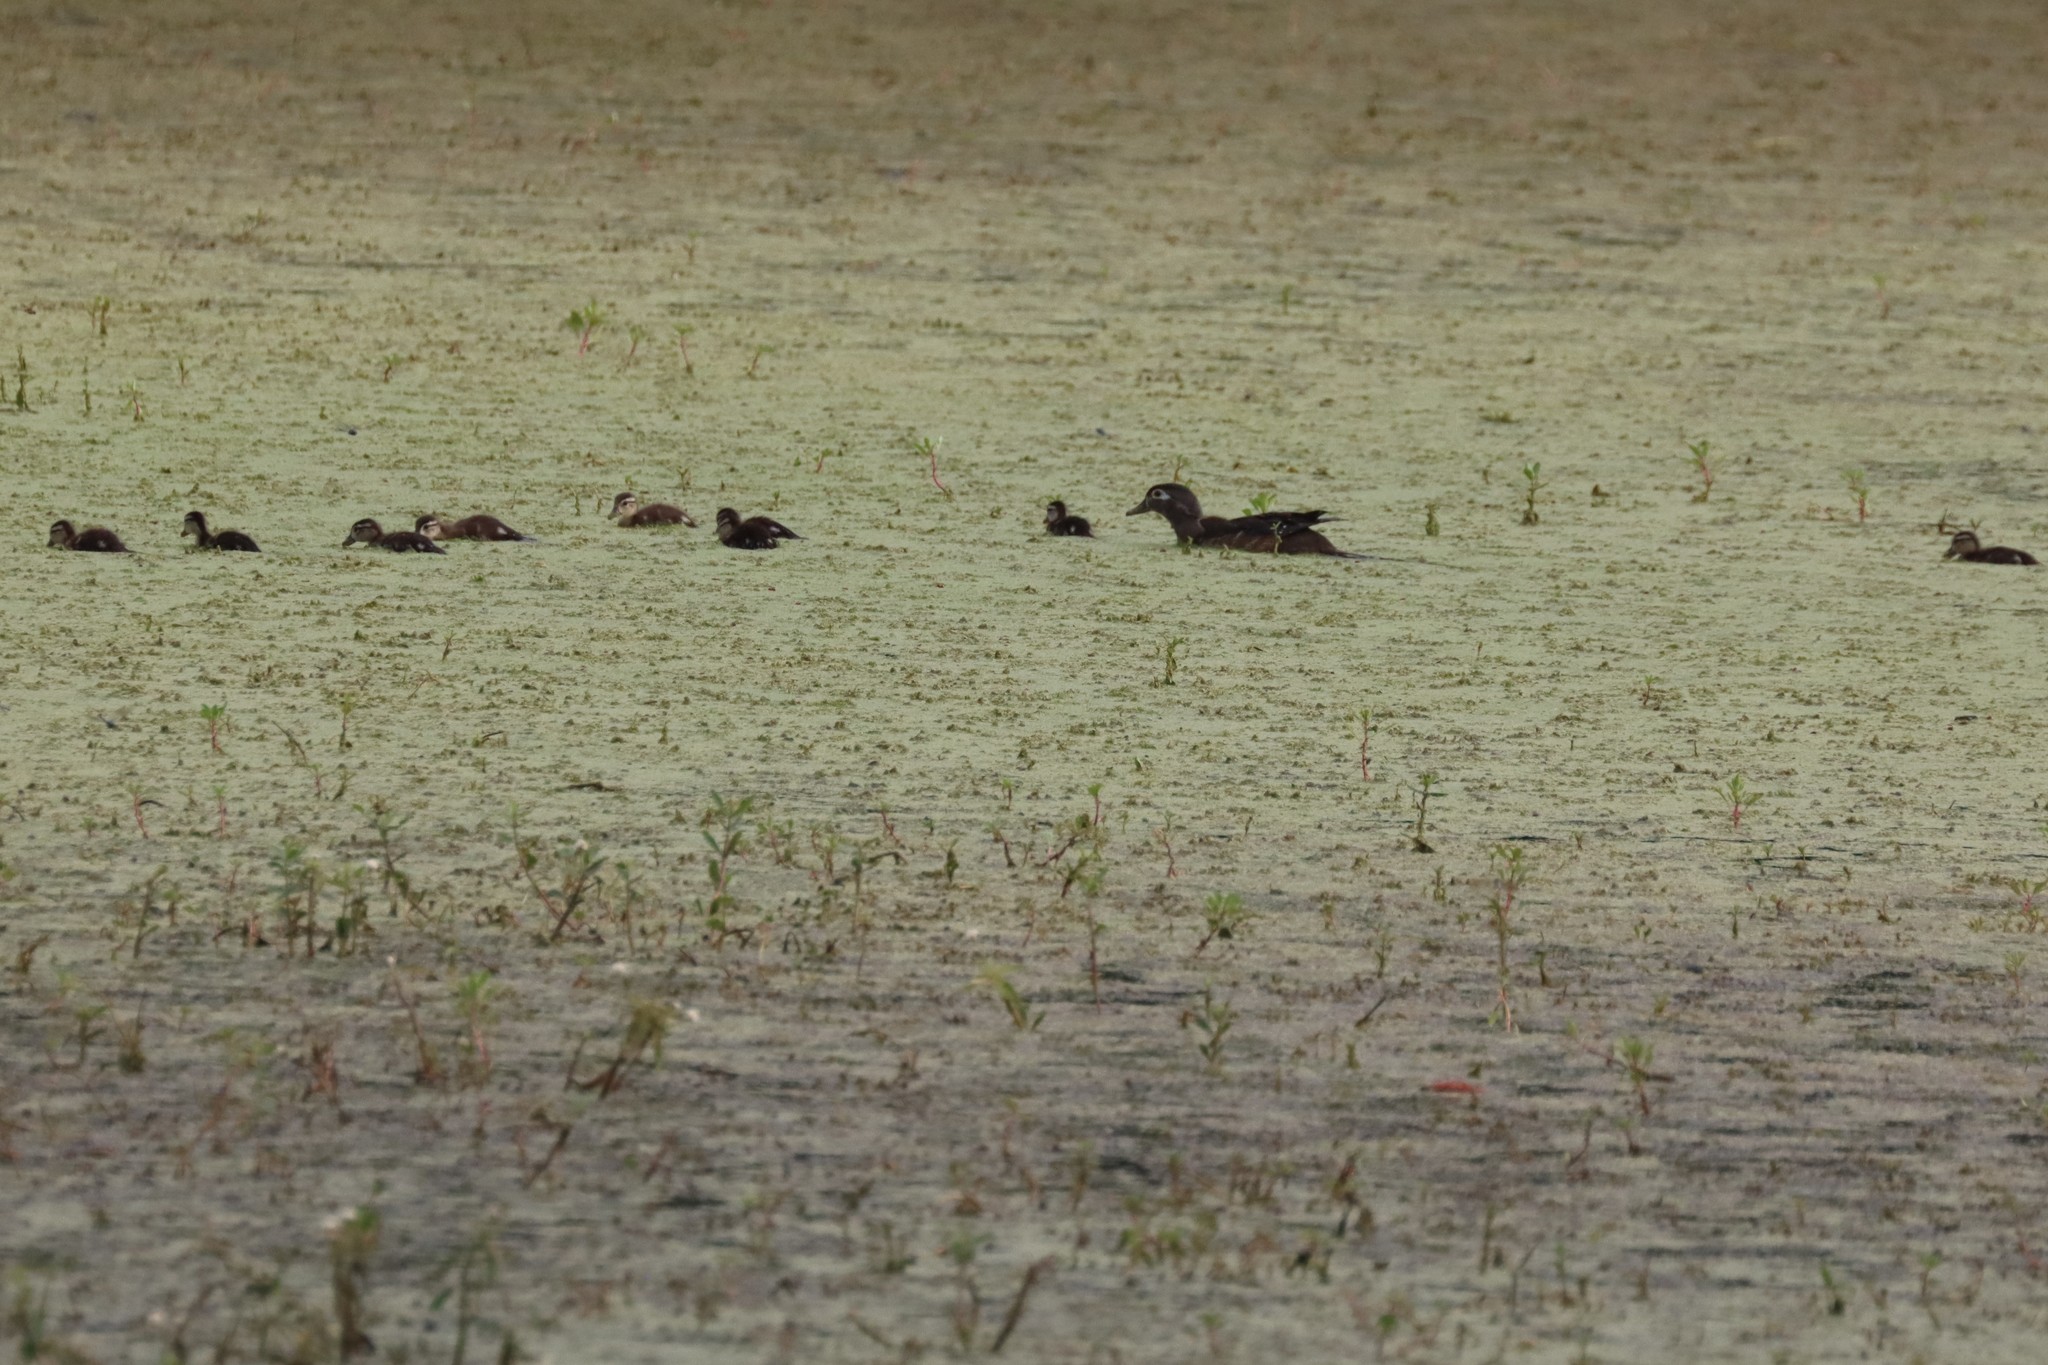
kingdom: Animalia
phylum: Chordata
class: Aves
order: Anseriformes
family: Anatidae
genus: Aix
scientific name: Aix sponsa
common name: Wood duck
